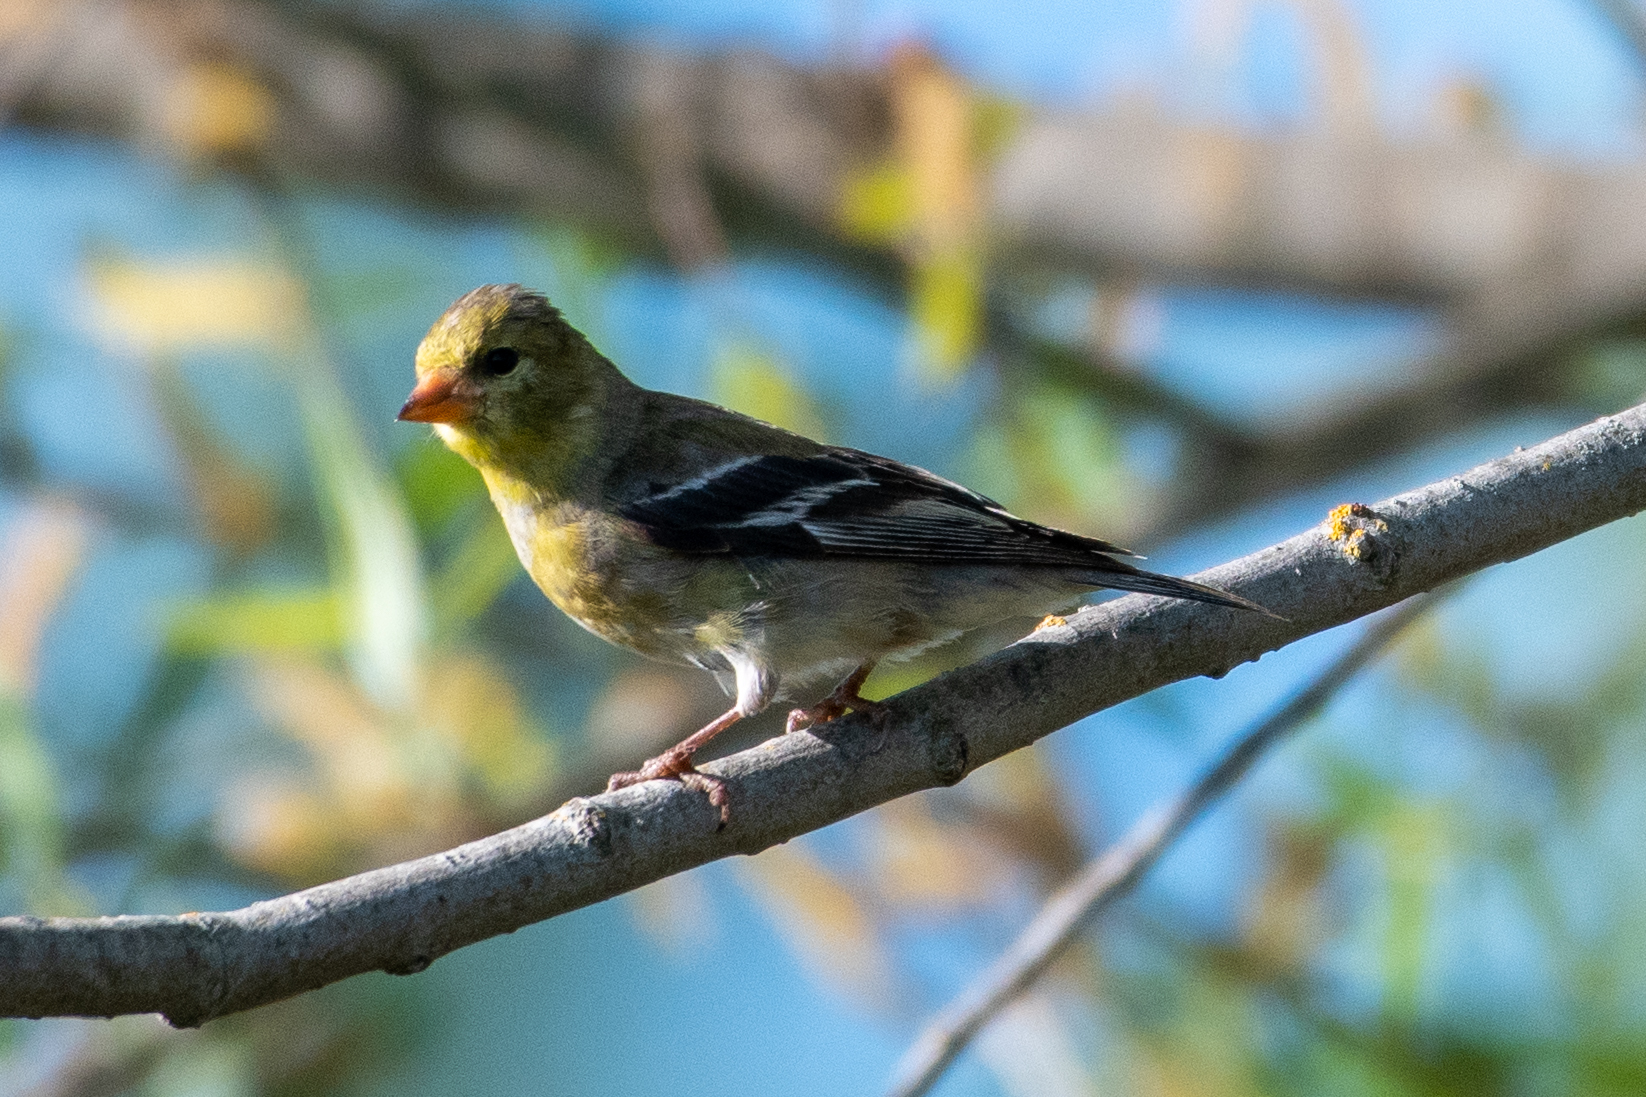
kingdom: Animalia
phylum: Chordata
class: Aves
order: Passeriformes
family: Fringillidae
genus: Spinus
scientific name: Spinus tristis
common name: American goldfinch
